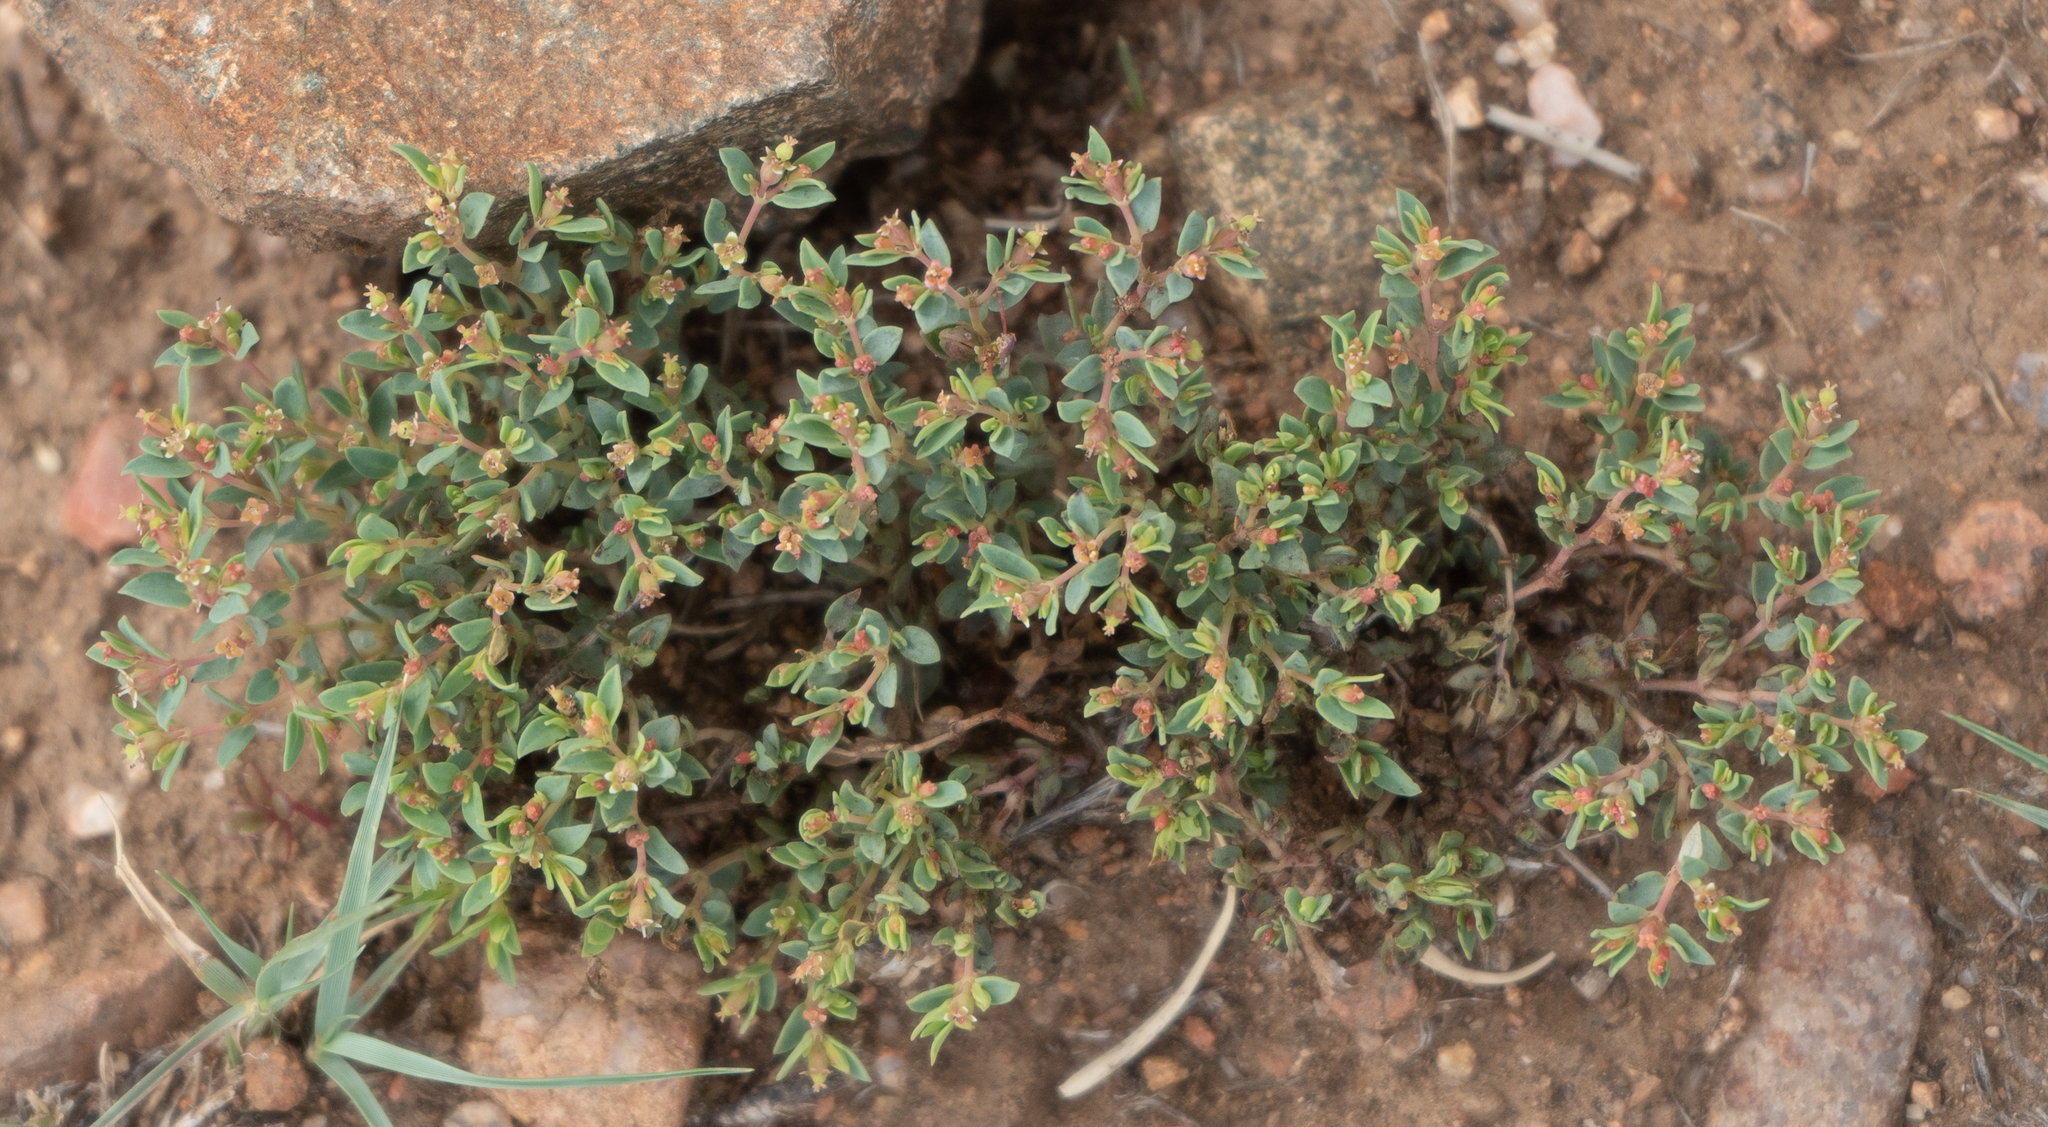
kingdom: Plantae
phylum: Tracheophyta
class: Magnoliopsida
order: Malpighiales
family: Euphorbiaceae
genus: Euphorbia
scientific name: Euphorbia fendleri
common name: Fendler's euphorbia
